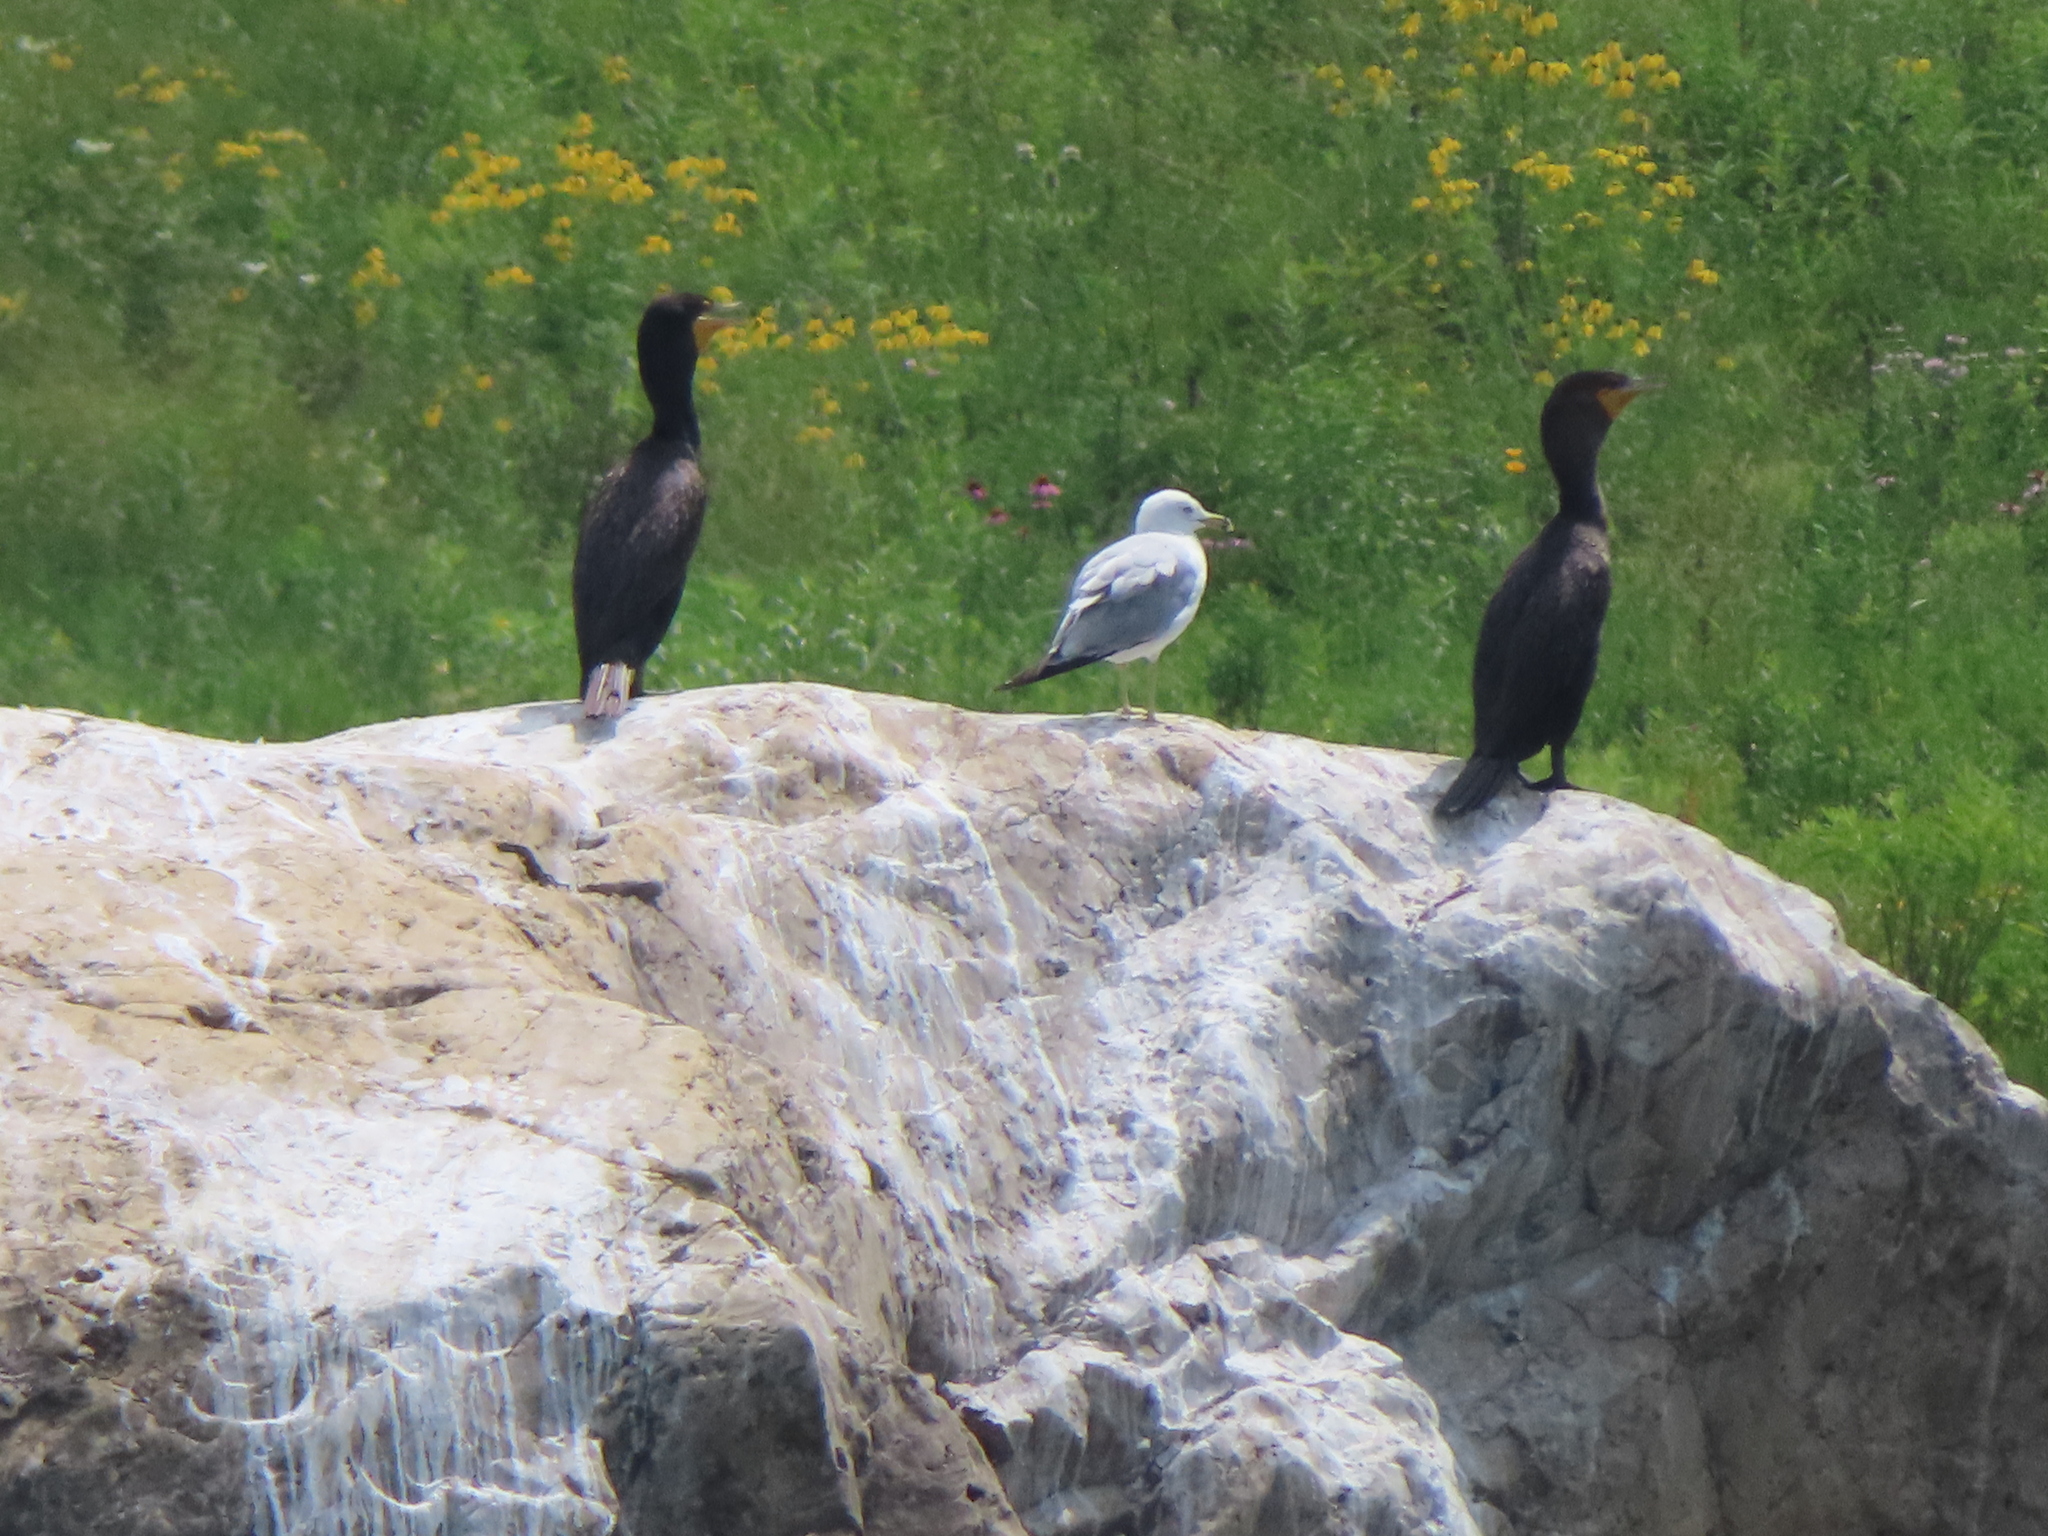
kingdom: Animalia
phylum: Chordata
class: Aves
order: Charadriiformes
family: Laridae
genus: Larus
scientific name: Larus delawarensis
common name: Ring-billed gull
